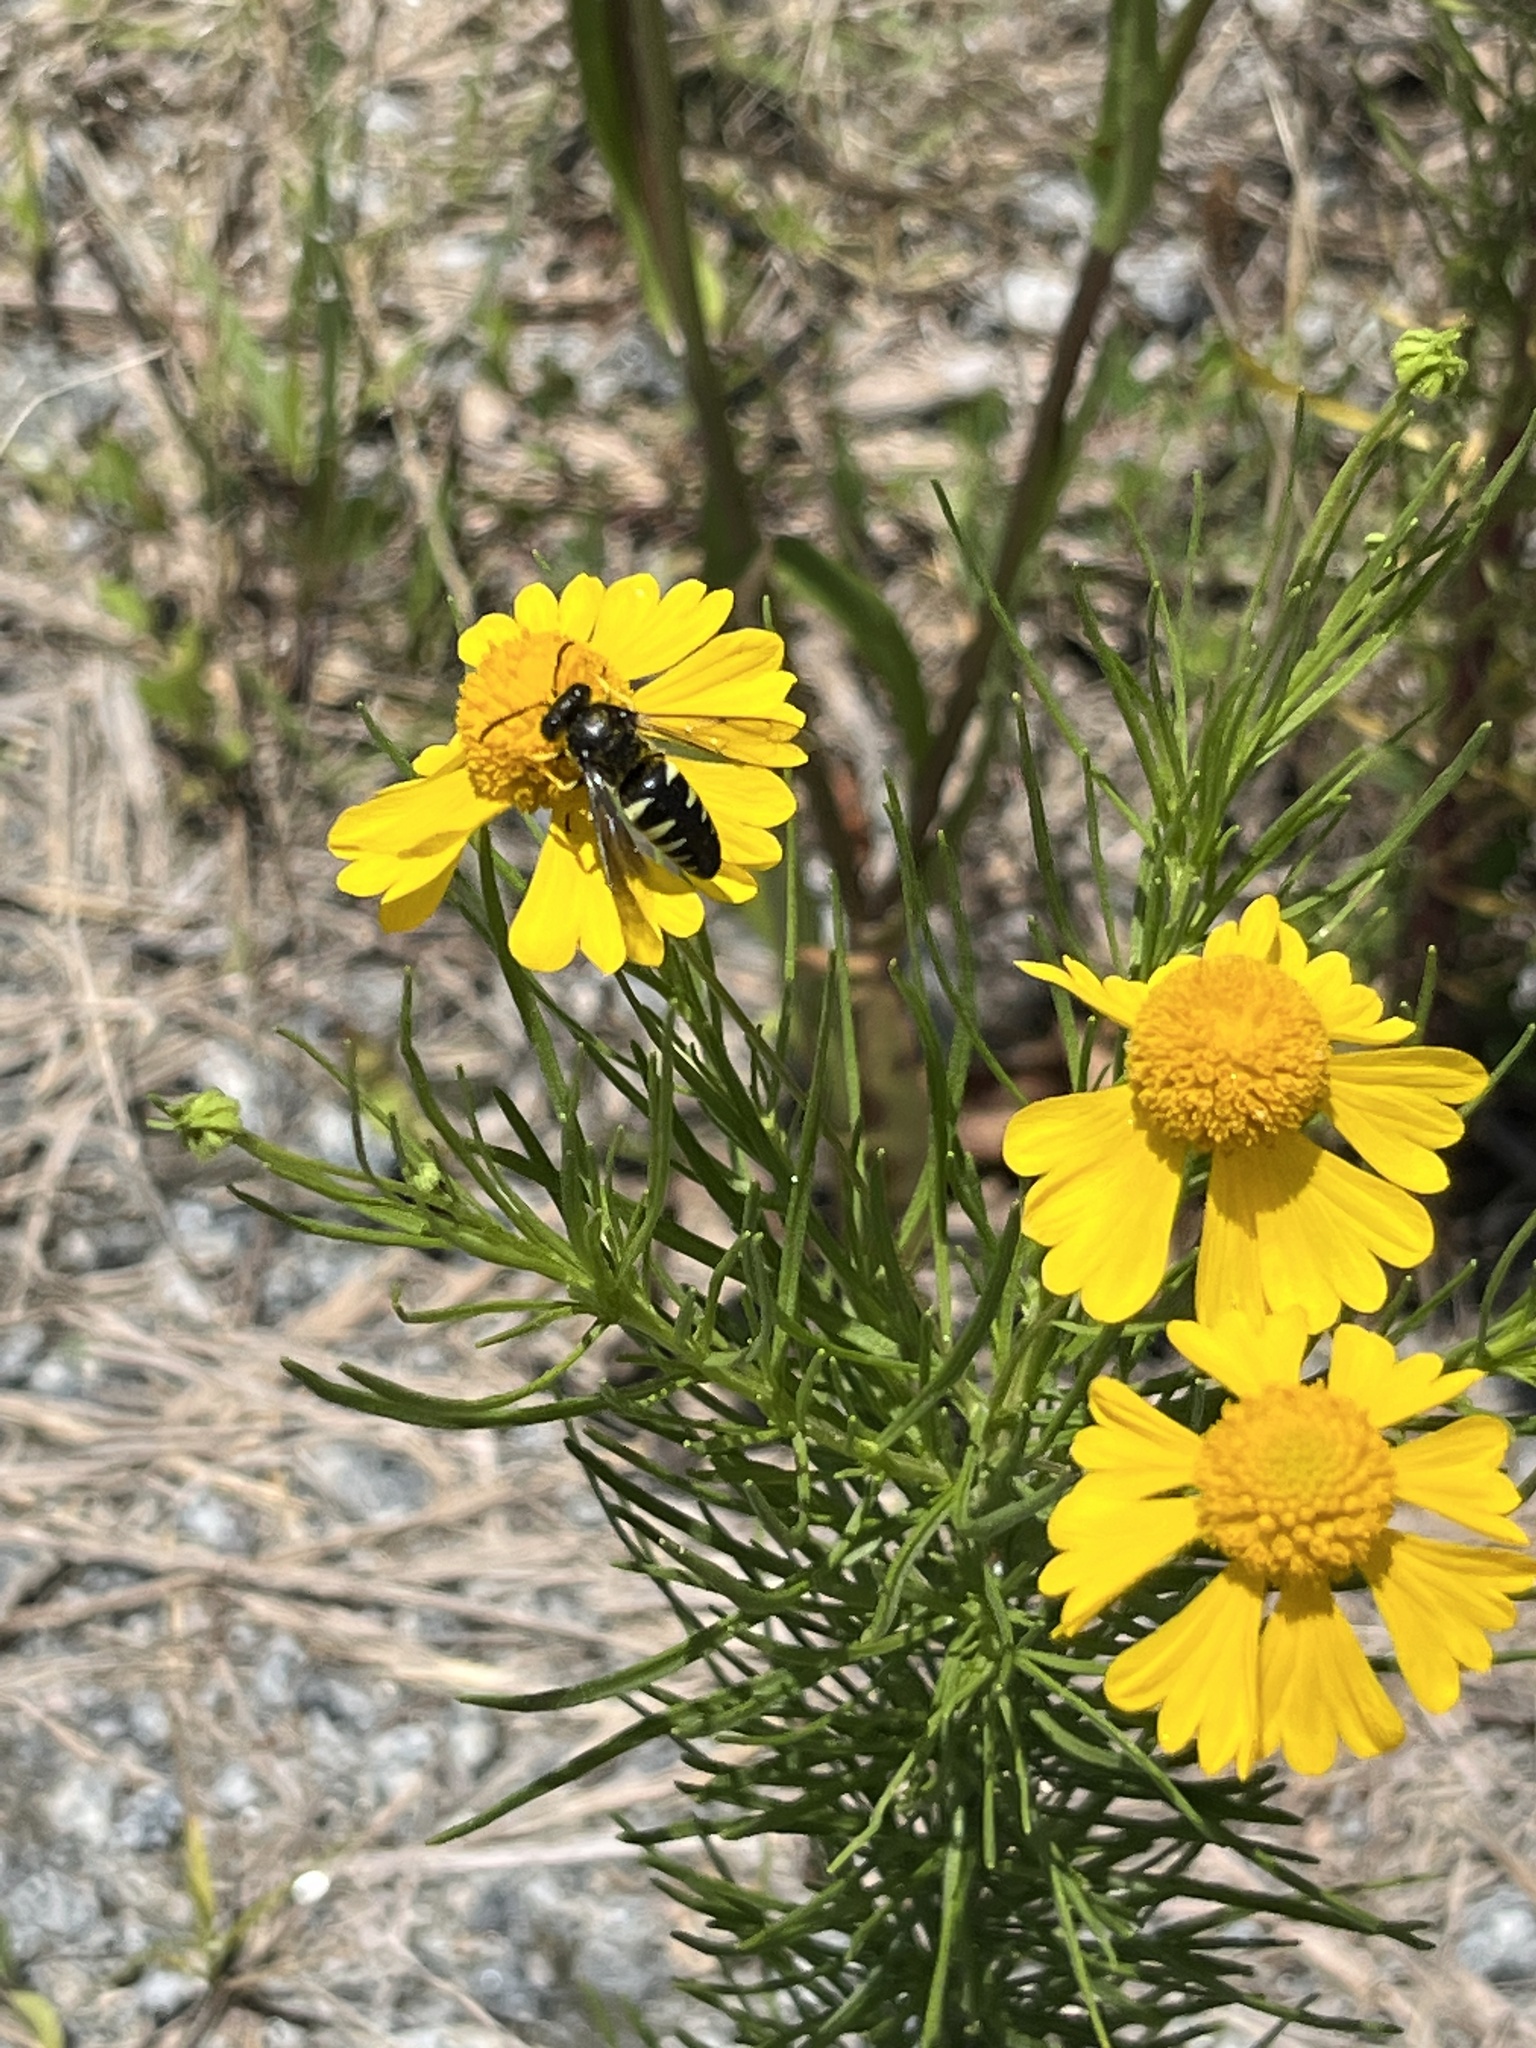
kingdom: Animalia
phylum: Arthropoda
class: Insecta
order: Hymenoptera
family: Crabronidae
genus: Bicyrtes
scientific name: Bicyrtes quadrifasciatus
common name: Four-banded stink bug hunter wasp
